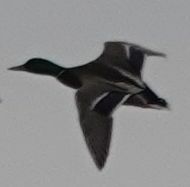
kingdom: Animalia
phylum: Chordata
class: Aves
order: Anseriformes
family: Anatidae
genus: Anas
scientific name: Anas platyrhynchos
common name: Mallard
